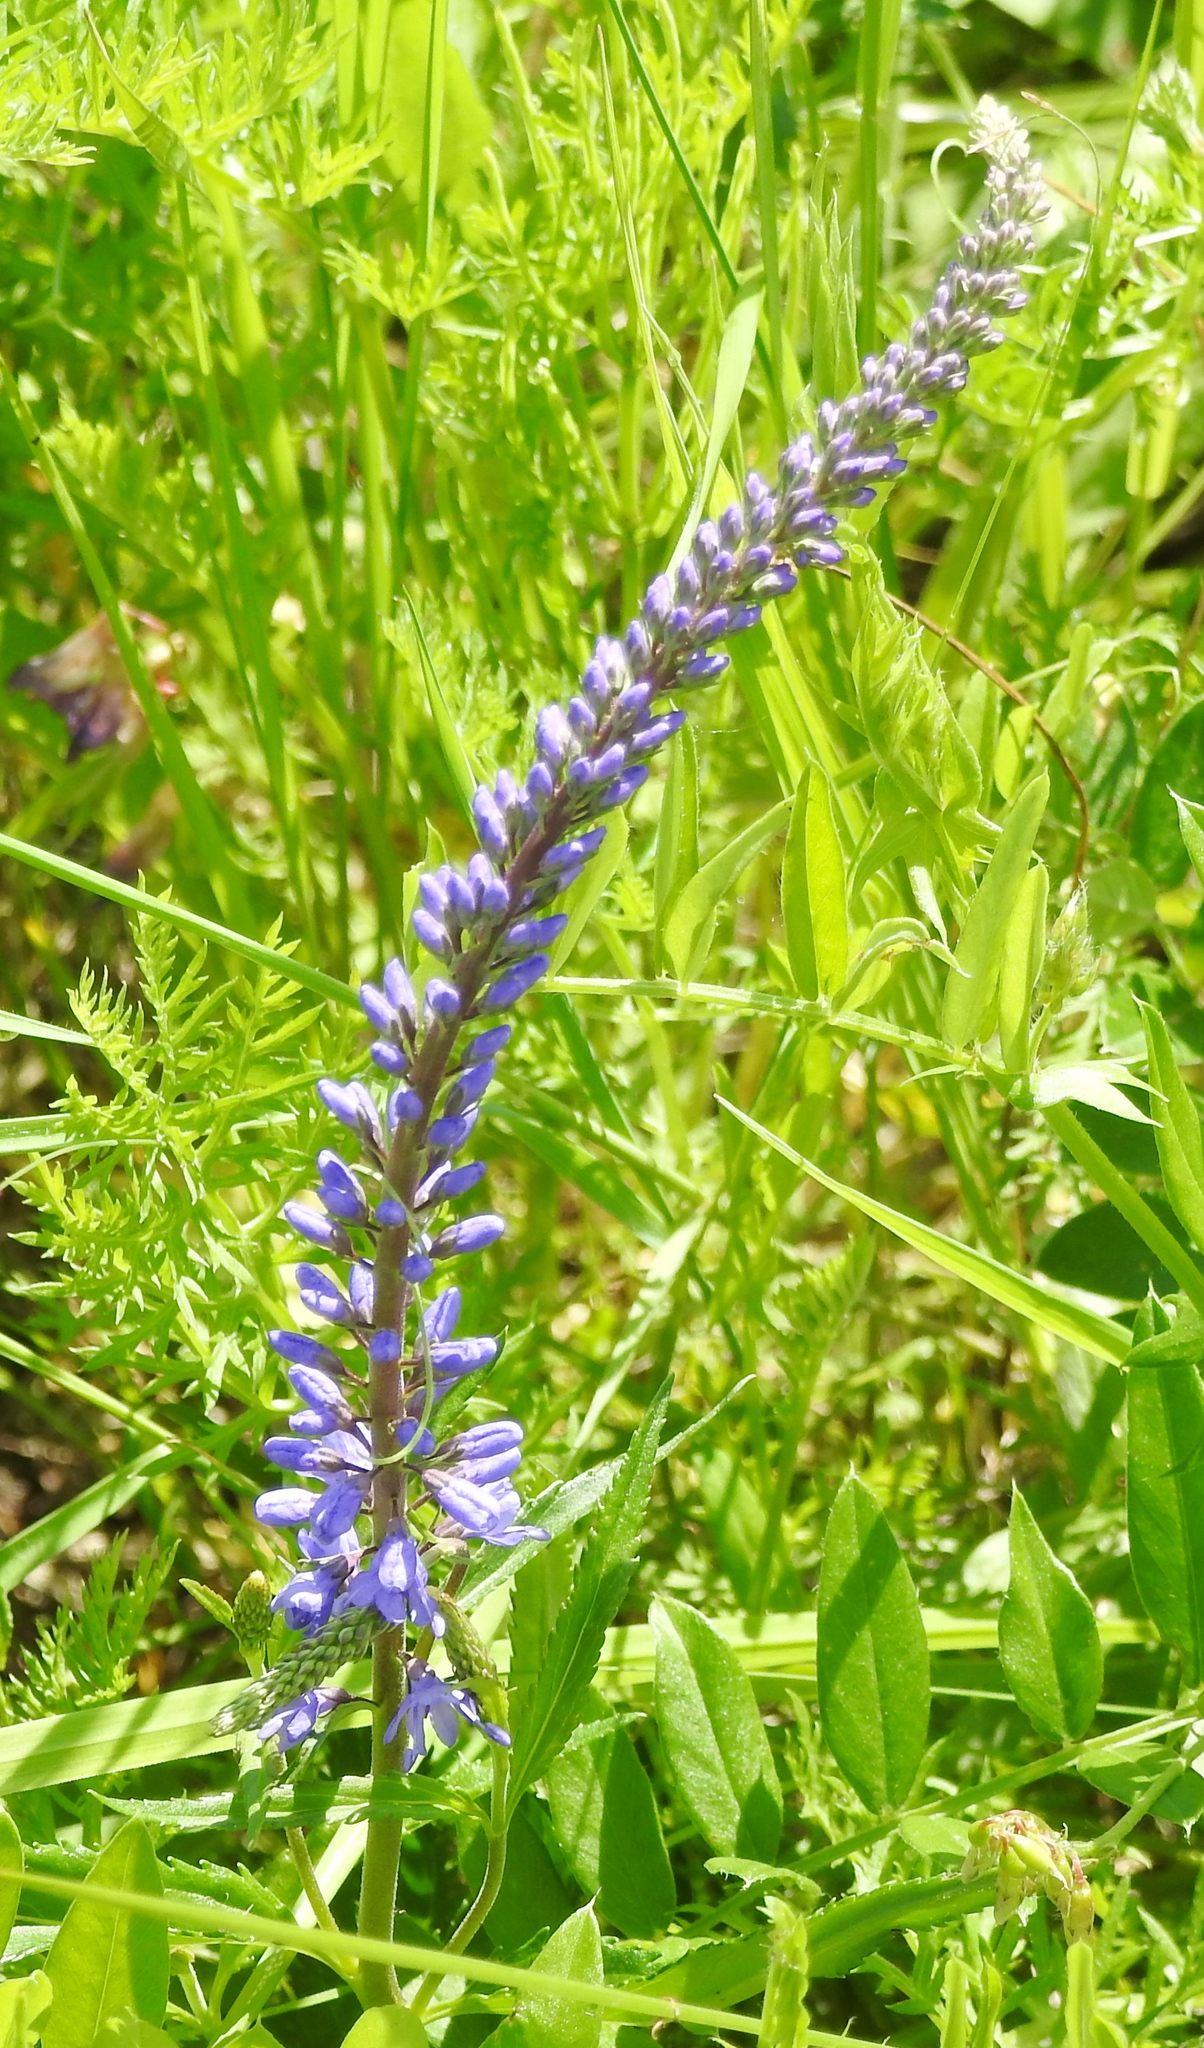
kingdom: Plantae
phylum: Tracheophyta
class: Magnoliopsida
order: Lamiales
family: Plantaginaceae
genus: Veronica
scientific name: Veronica longifolia
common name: Garden speedwell
